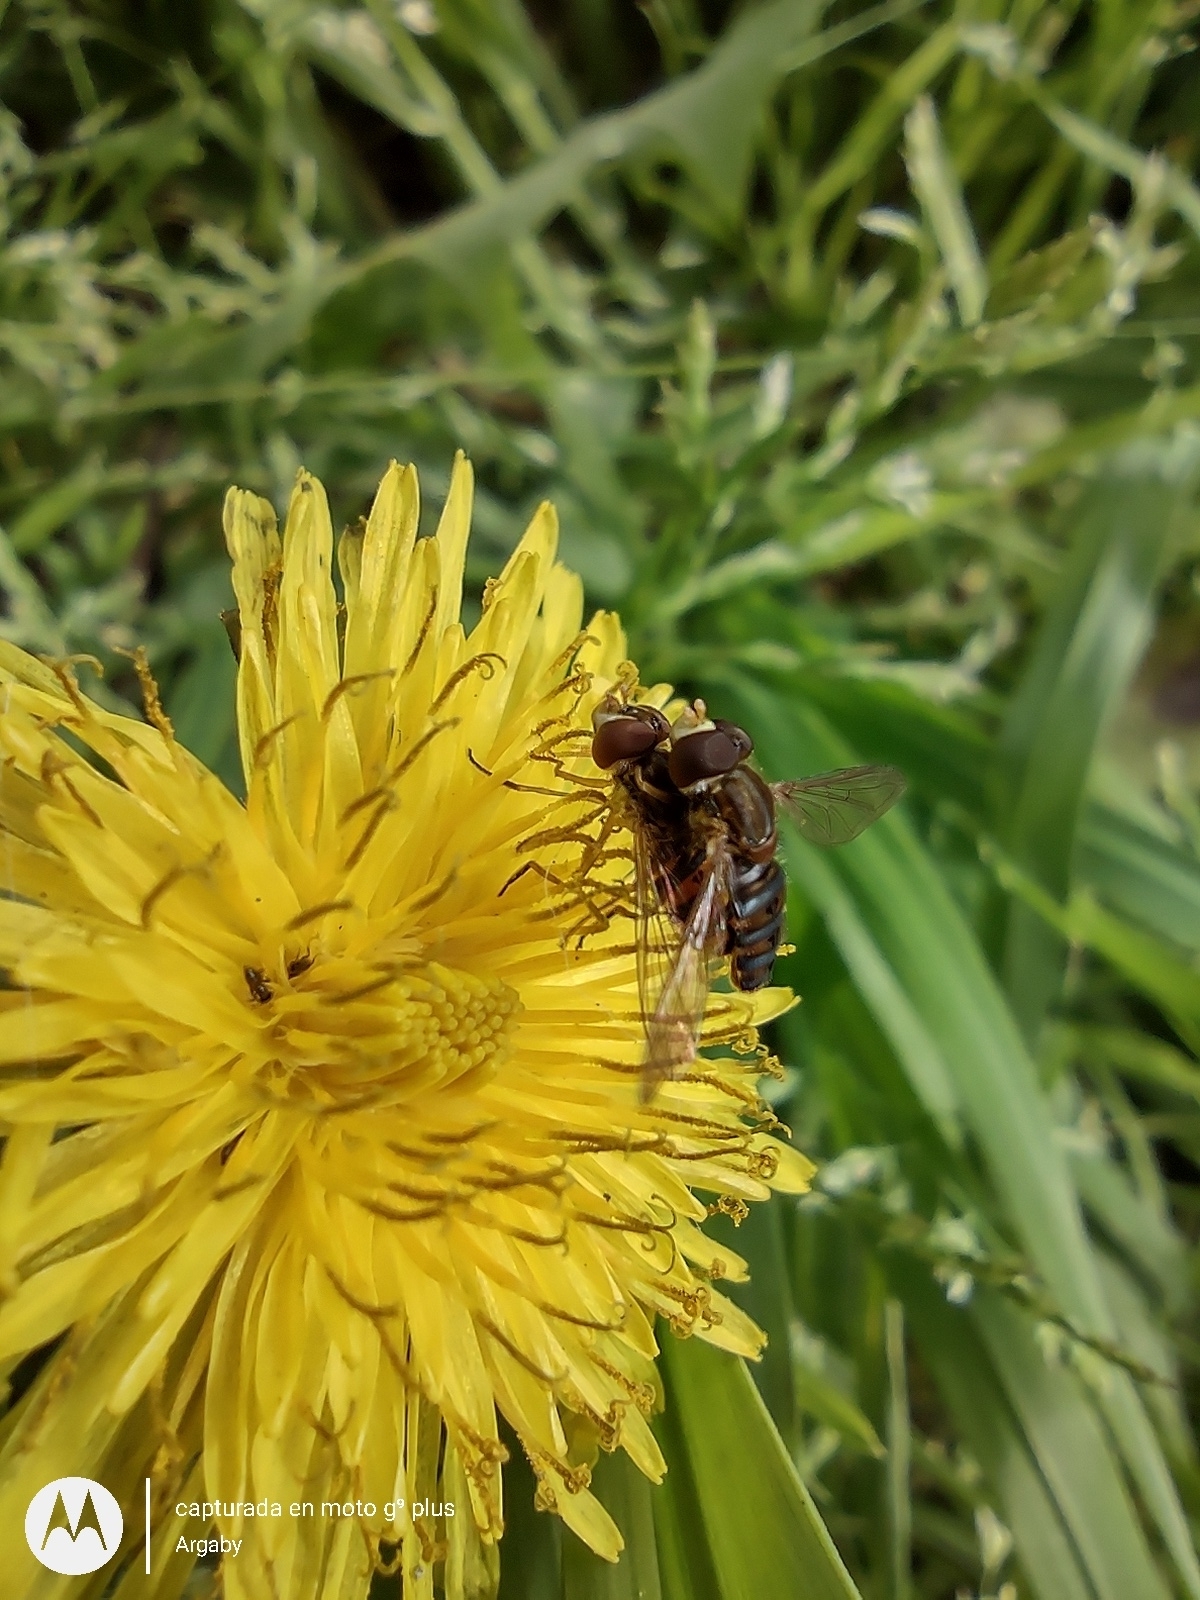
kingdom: Animalia
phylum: Arthropoda
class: Insecta
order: Diptera
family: Syrphidae
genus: Toxomerus
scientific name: Toxomerus
